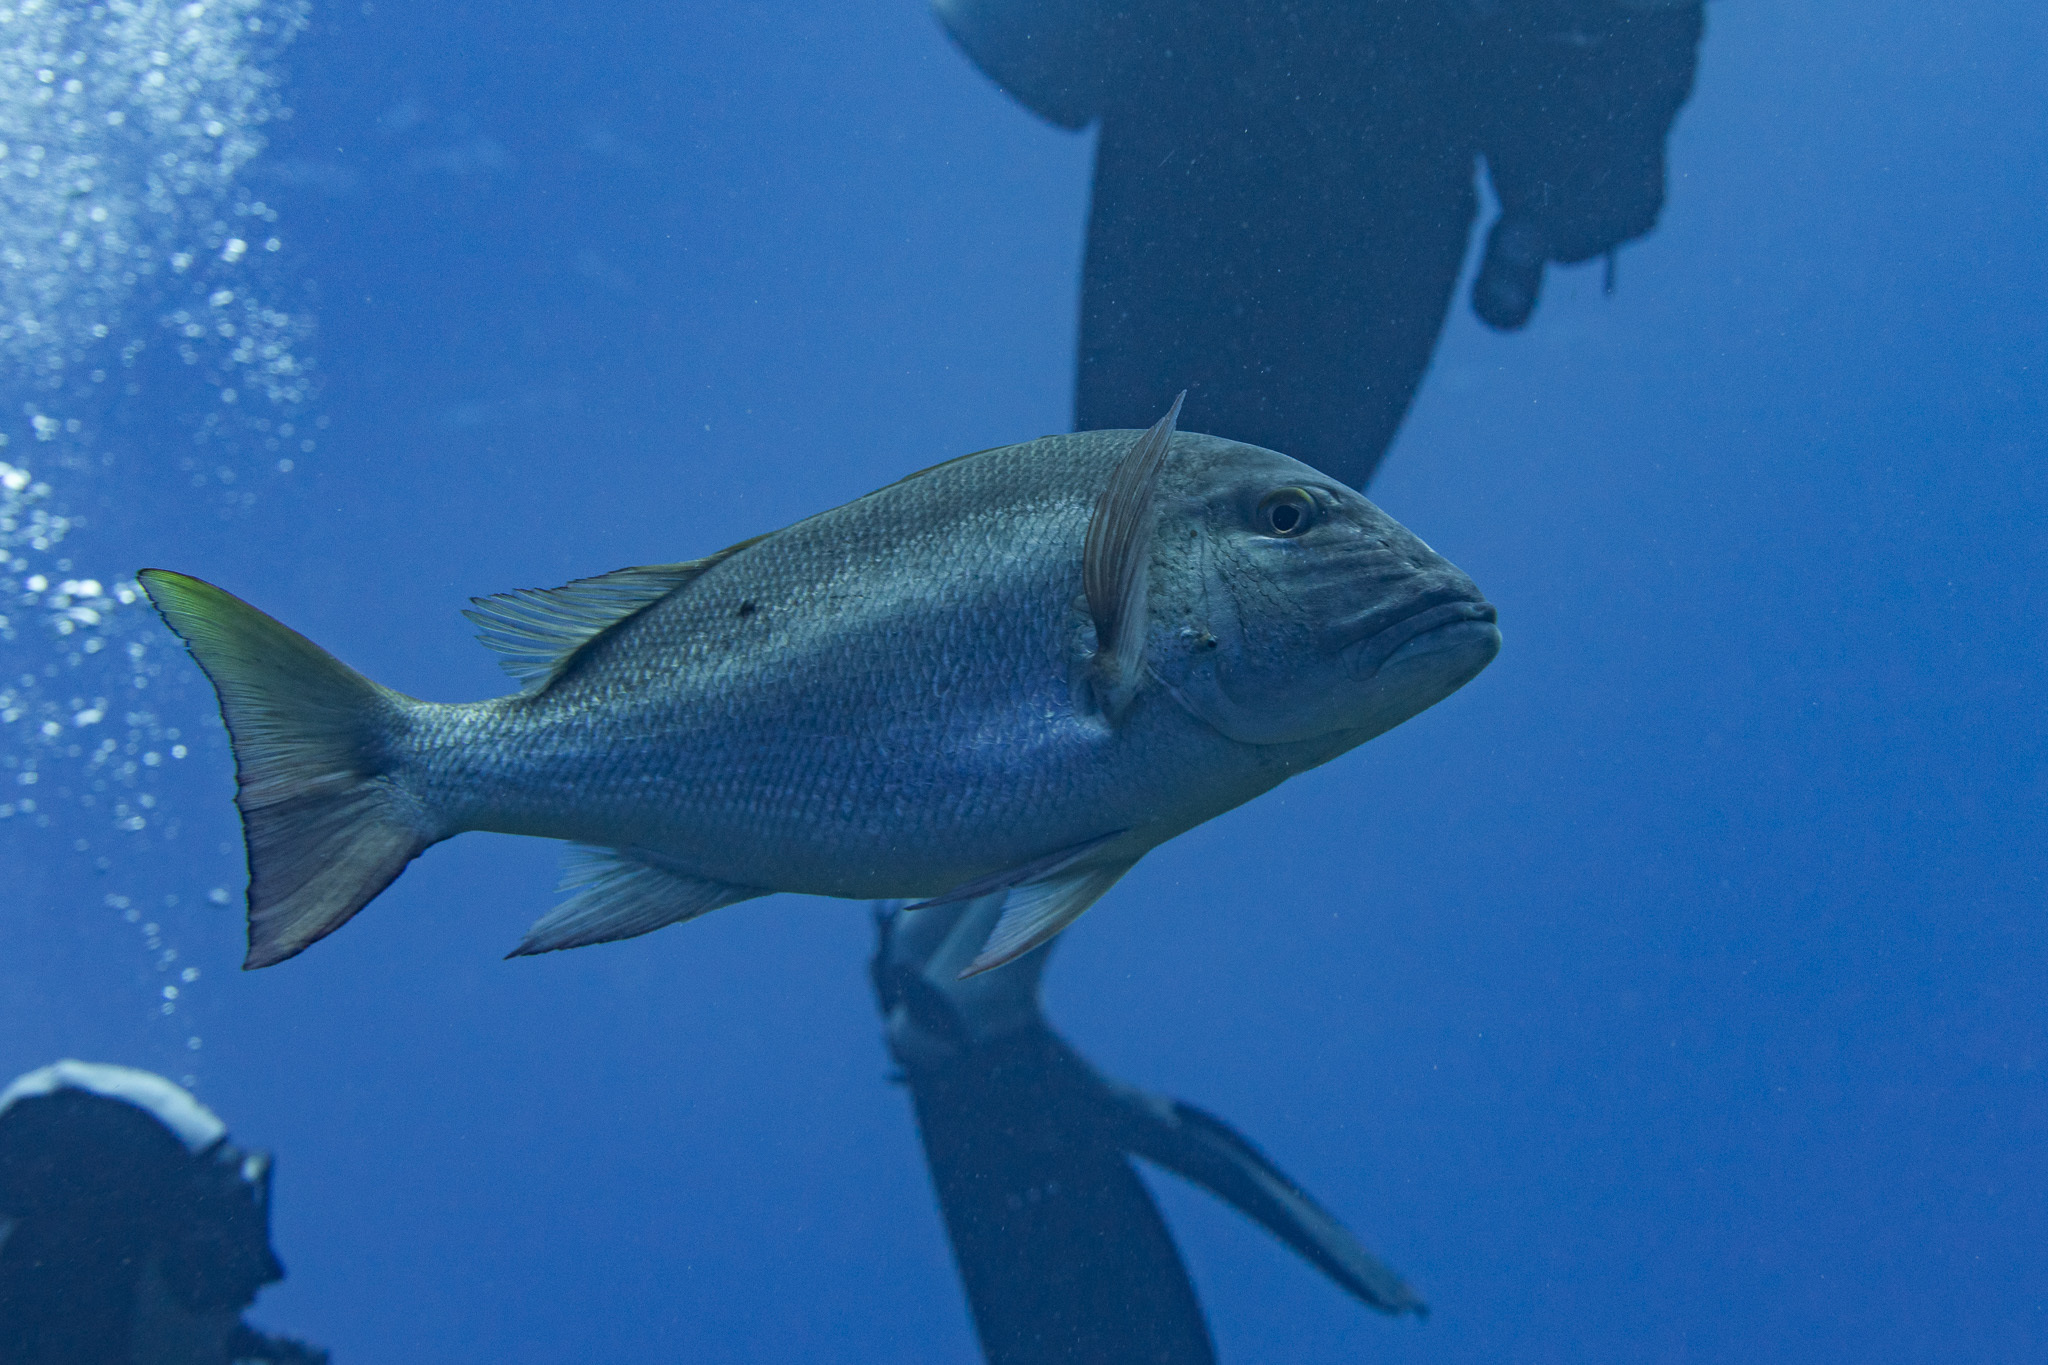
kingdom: Animalia
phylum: Chordata
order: Perciformes
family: Lutjanidae
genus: Lutjanus
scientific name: Lutjanus analis
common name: Mutton snapper
